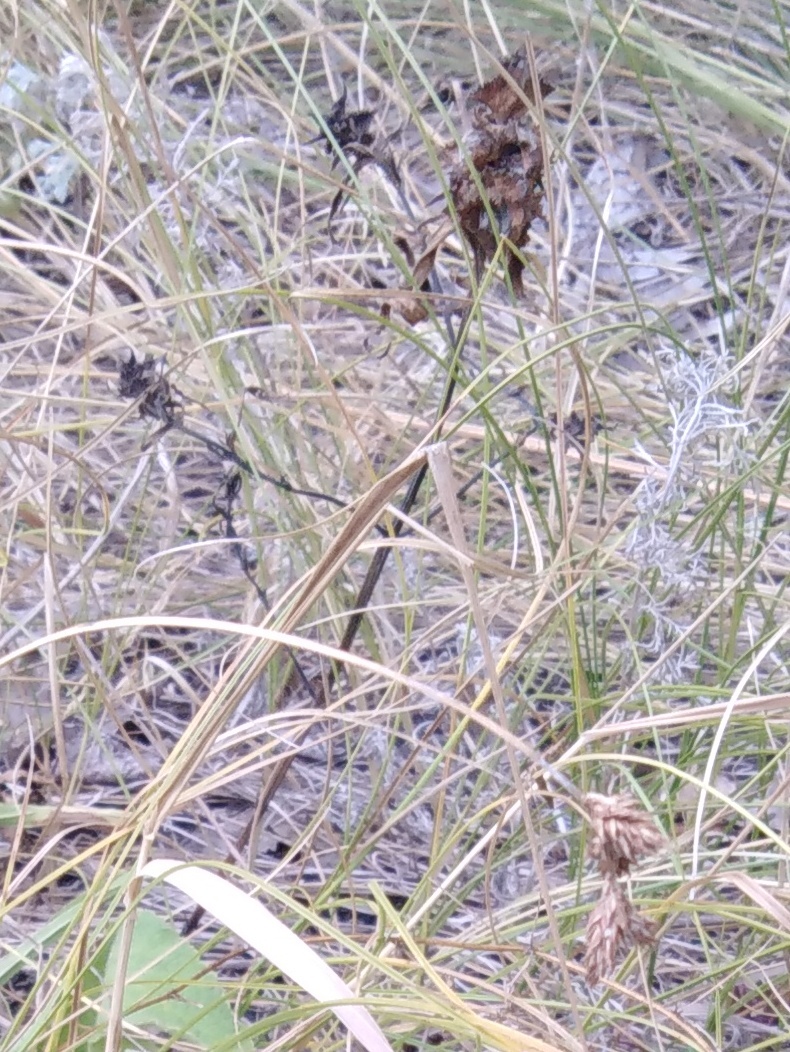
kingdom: Plantae
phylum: Tracheophyta
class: Magnoliopsida
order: Lamiales
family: Orobanchaceae
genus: Melampyrum
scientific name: Melampyrum cristatum
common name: Crested cow-wheat
